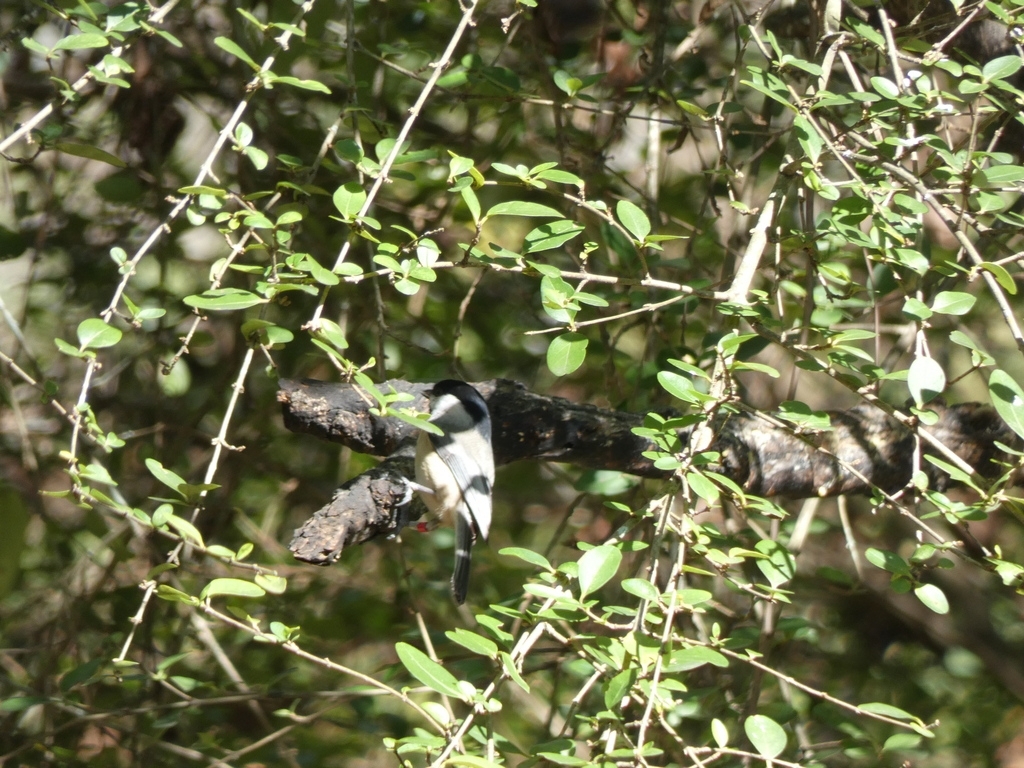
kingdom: Animalia
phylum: Chordata
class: Aves
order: Passeriformes
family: Paridae
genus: Poecile
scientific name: Poecile carolinensis
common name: Carolina chickadee
